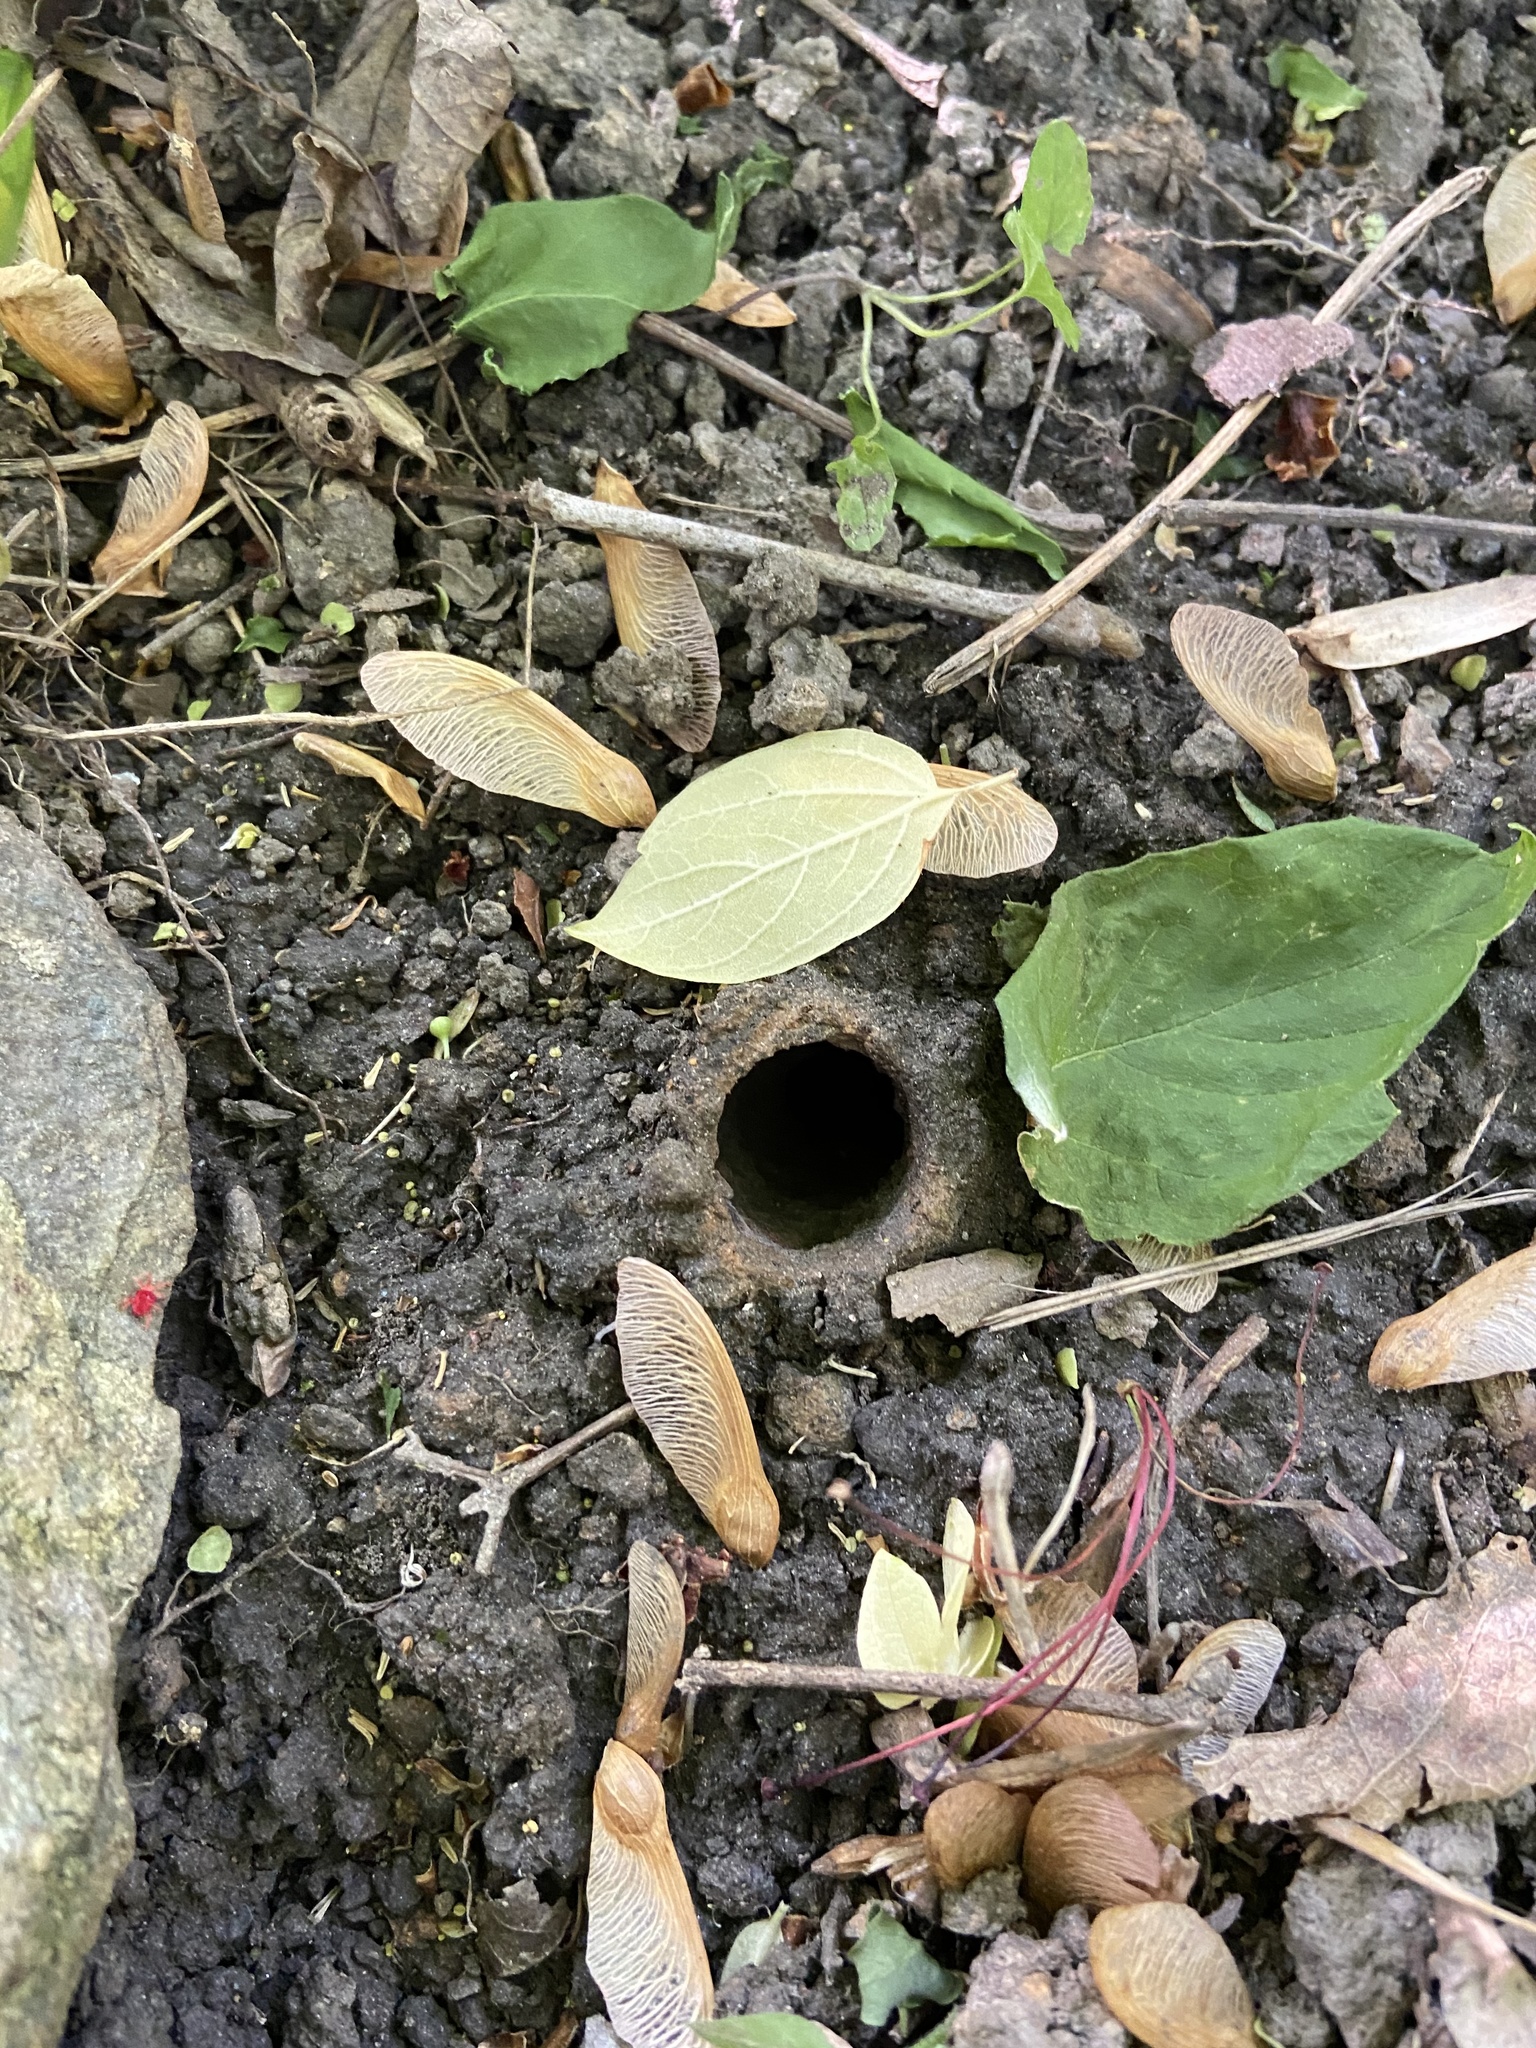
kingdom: Animalia
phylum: Arthropoda
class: Insecta
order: Hemiptera
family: Cicadidae
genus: Magicicada
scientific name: Magicicada
